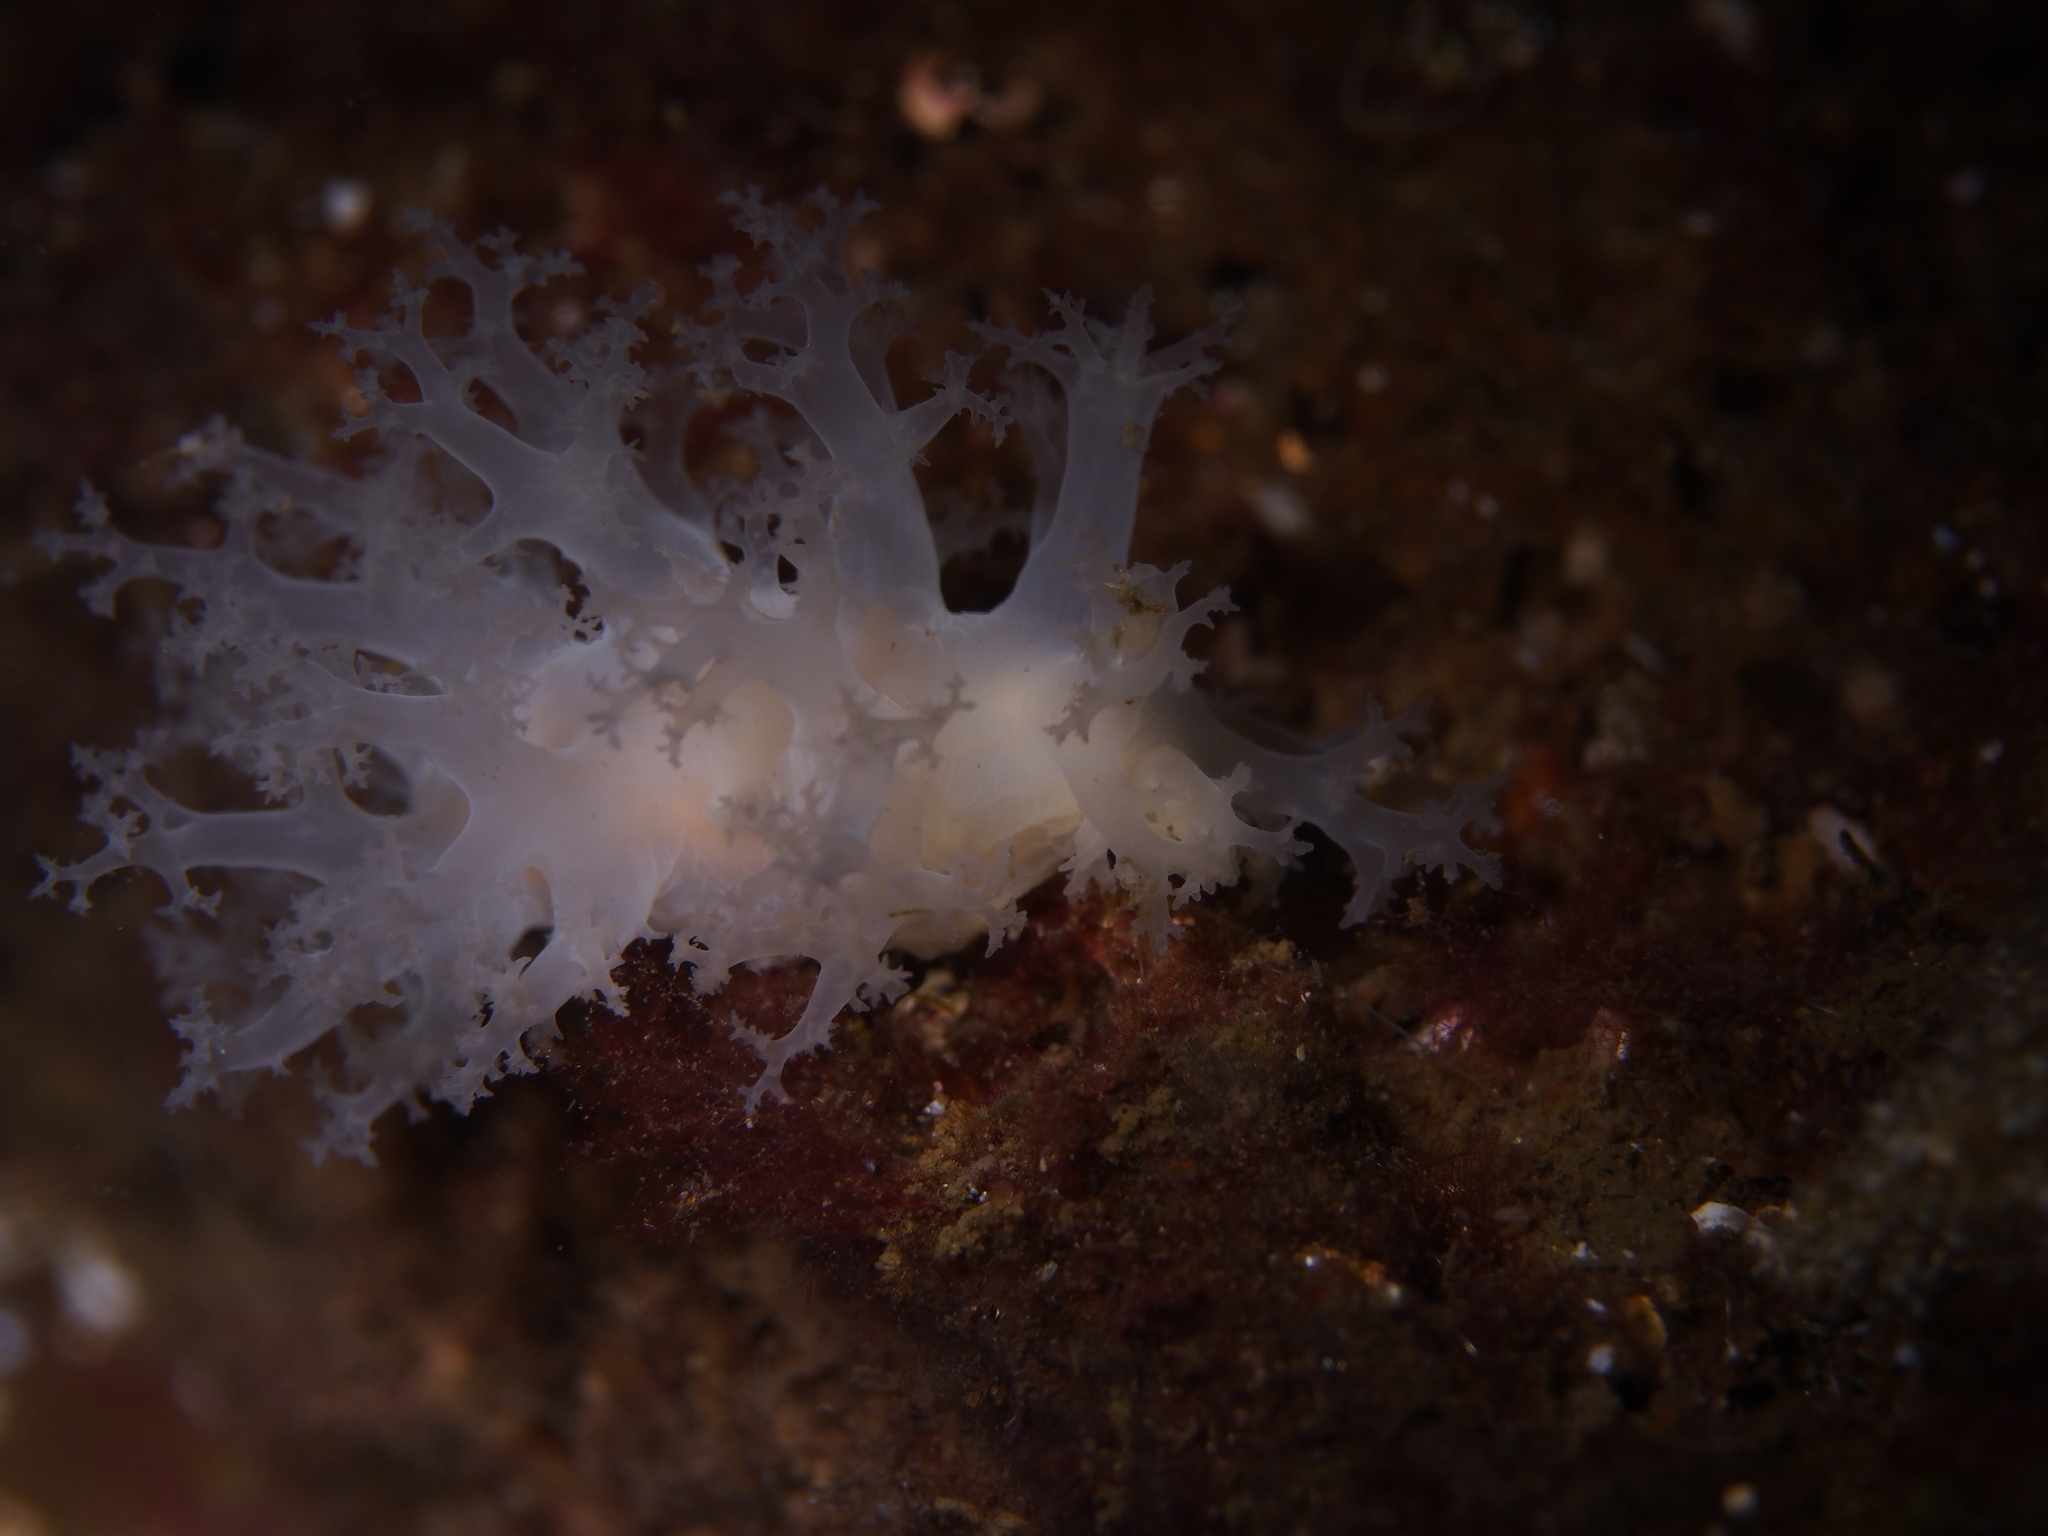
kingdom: Animalia
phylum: Mollusca
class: Gastropoda
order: Nudibranchia
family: Dendronotidae
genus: Dendronotus
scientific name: Dendronotus lacteus
